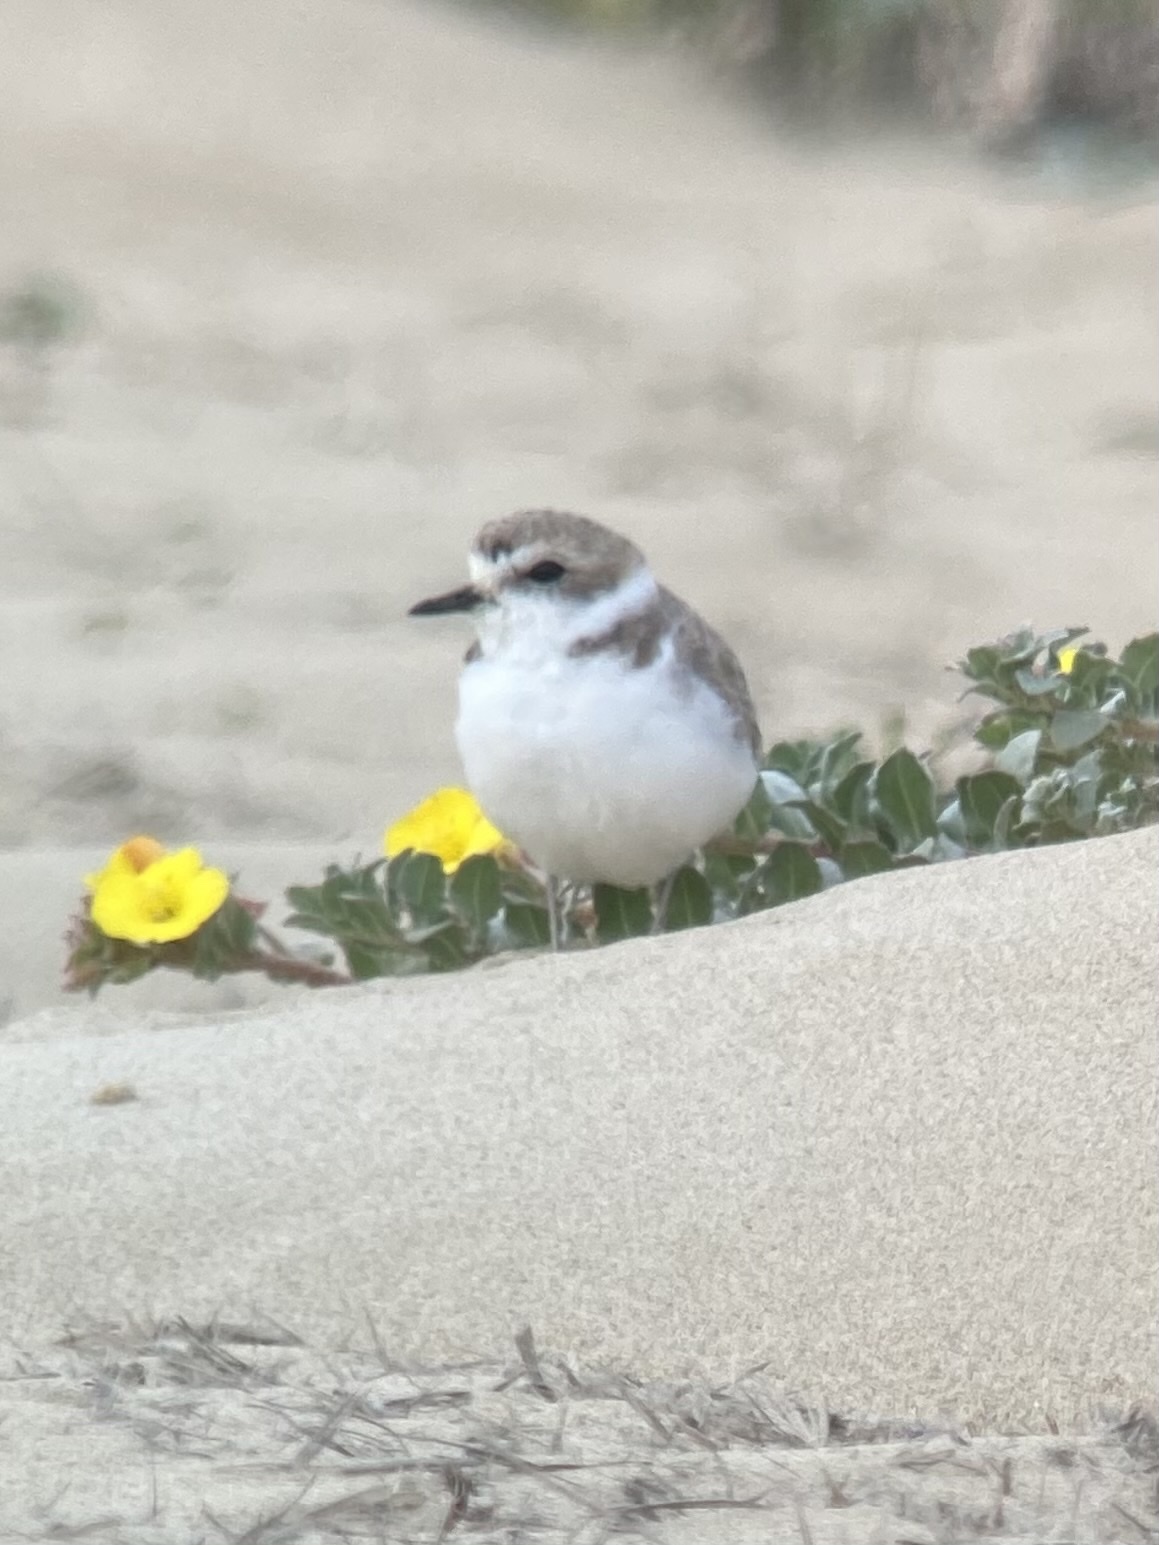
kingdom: Animalia
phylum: Chordata
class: Aves
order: Charadriiformes
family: Charadriidae
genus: Anarhynchus
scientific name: Anarhynchus
